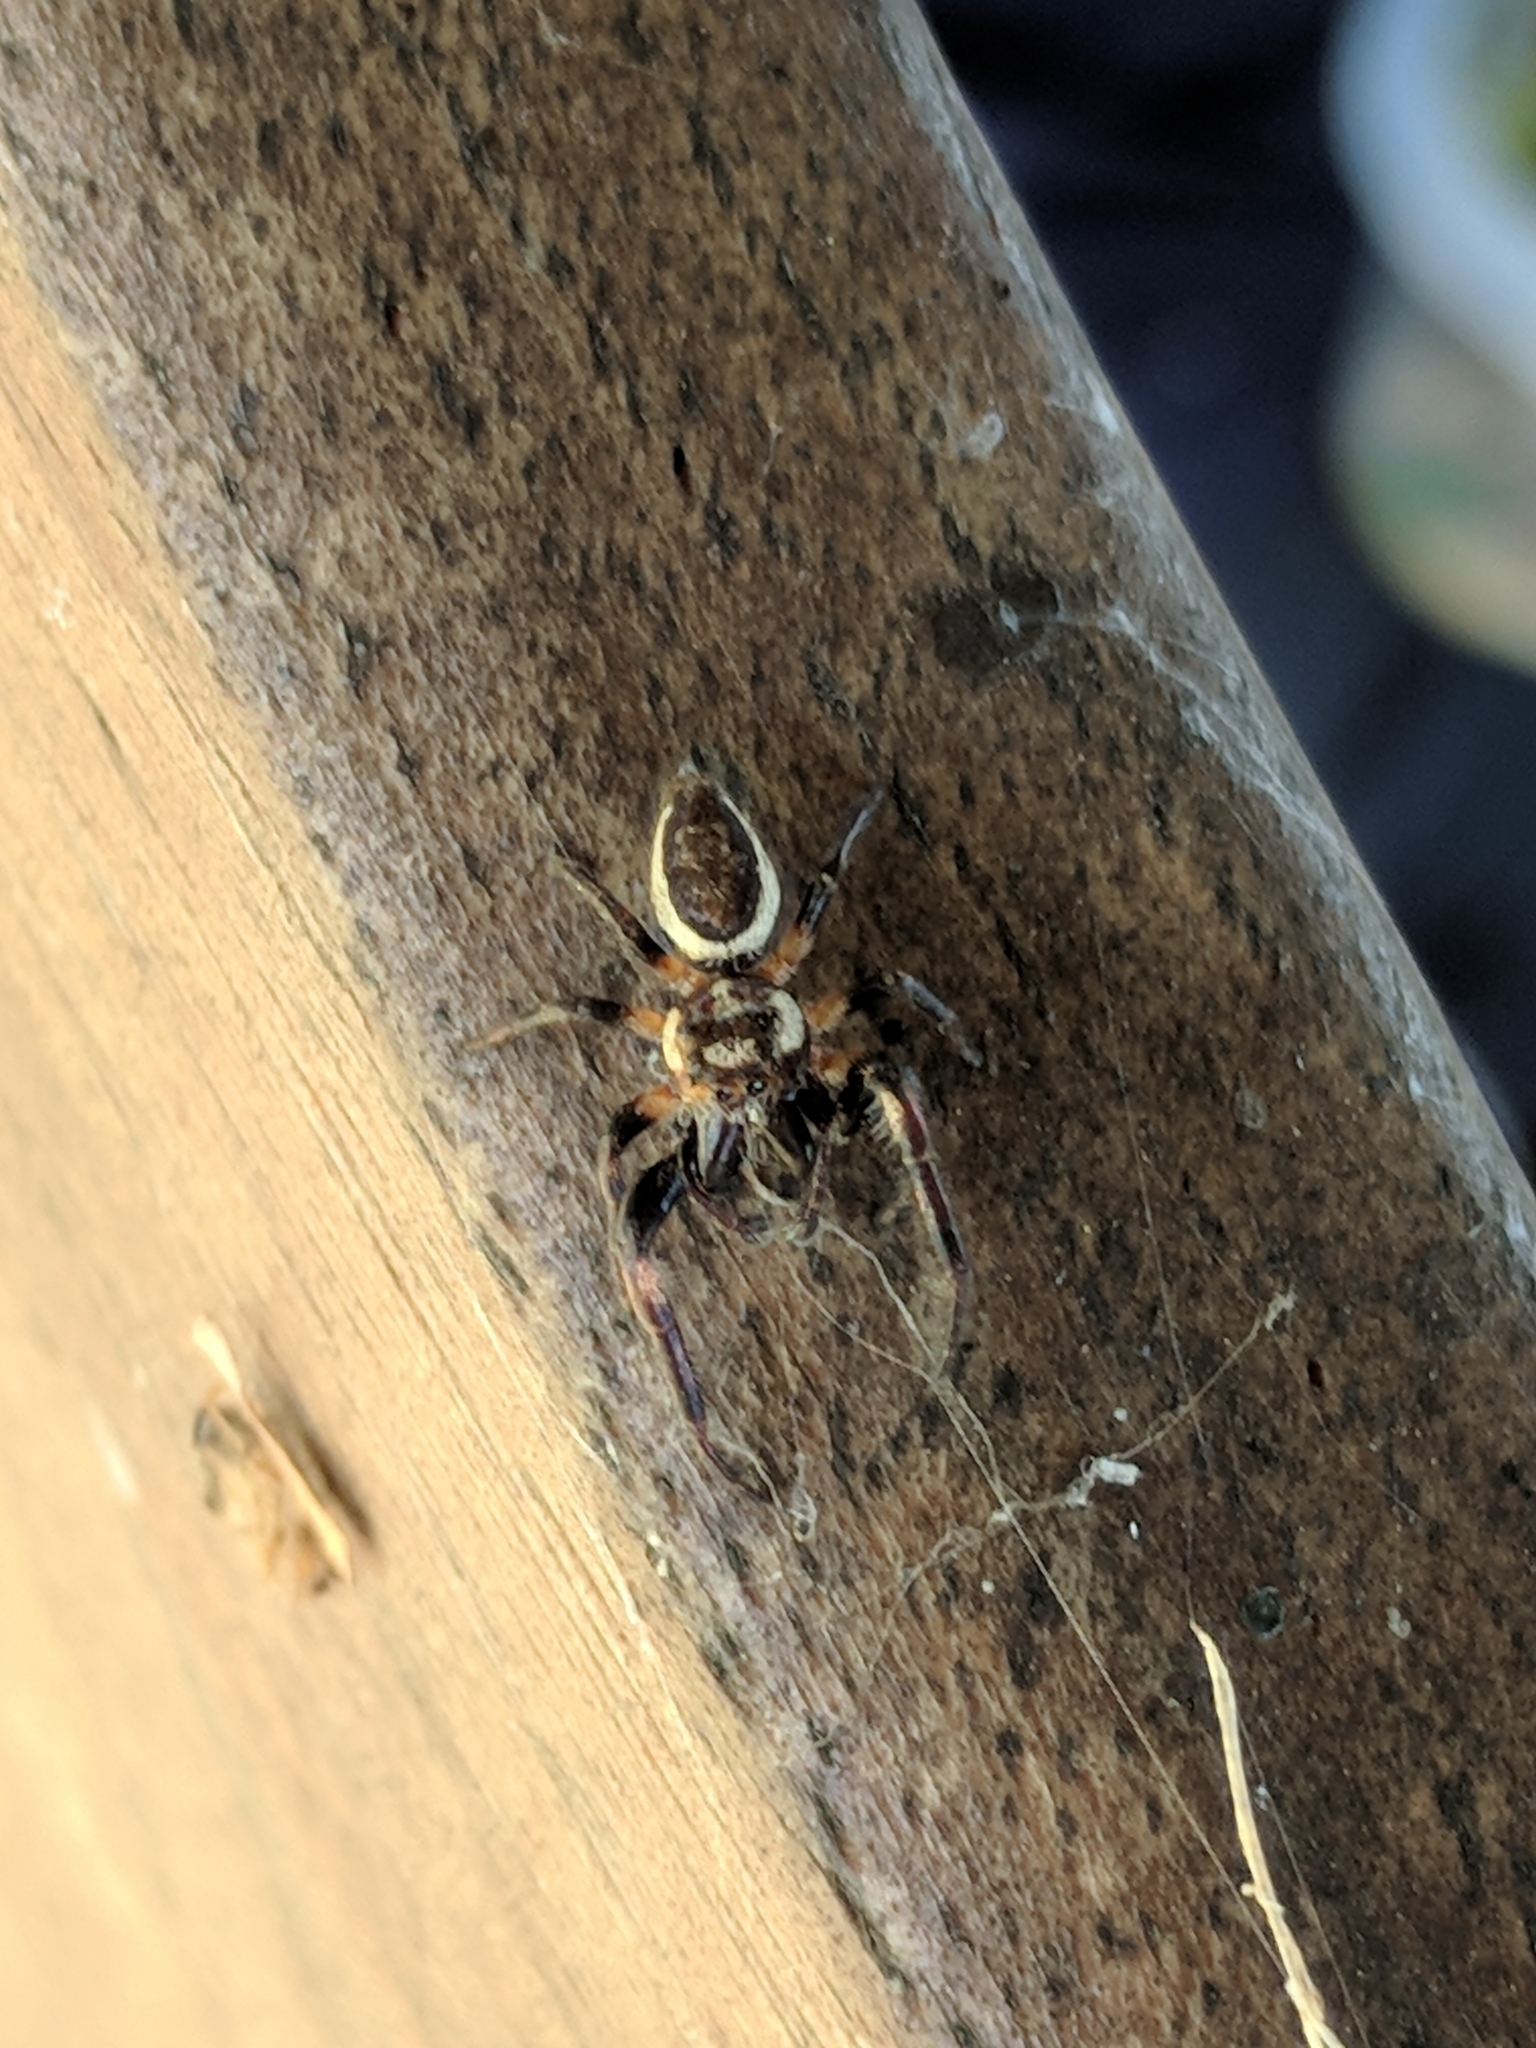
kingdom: Animalia
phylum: Arthropoda
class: Arachnida
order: Araneae
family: Salticidae
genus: Eris
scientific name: Eris militaris
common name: Bronze jumper
